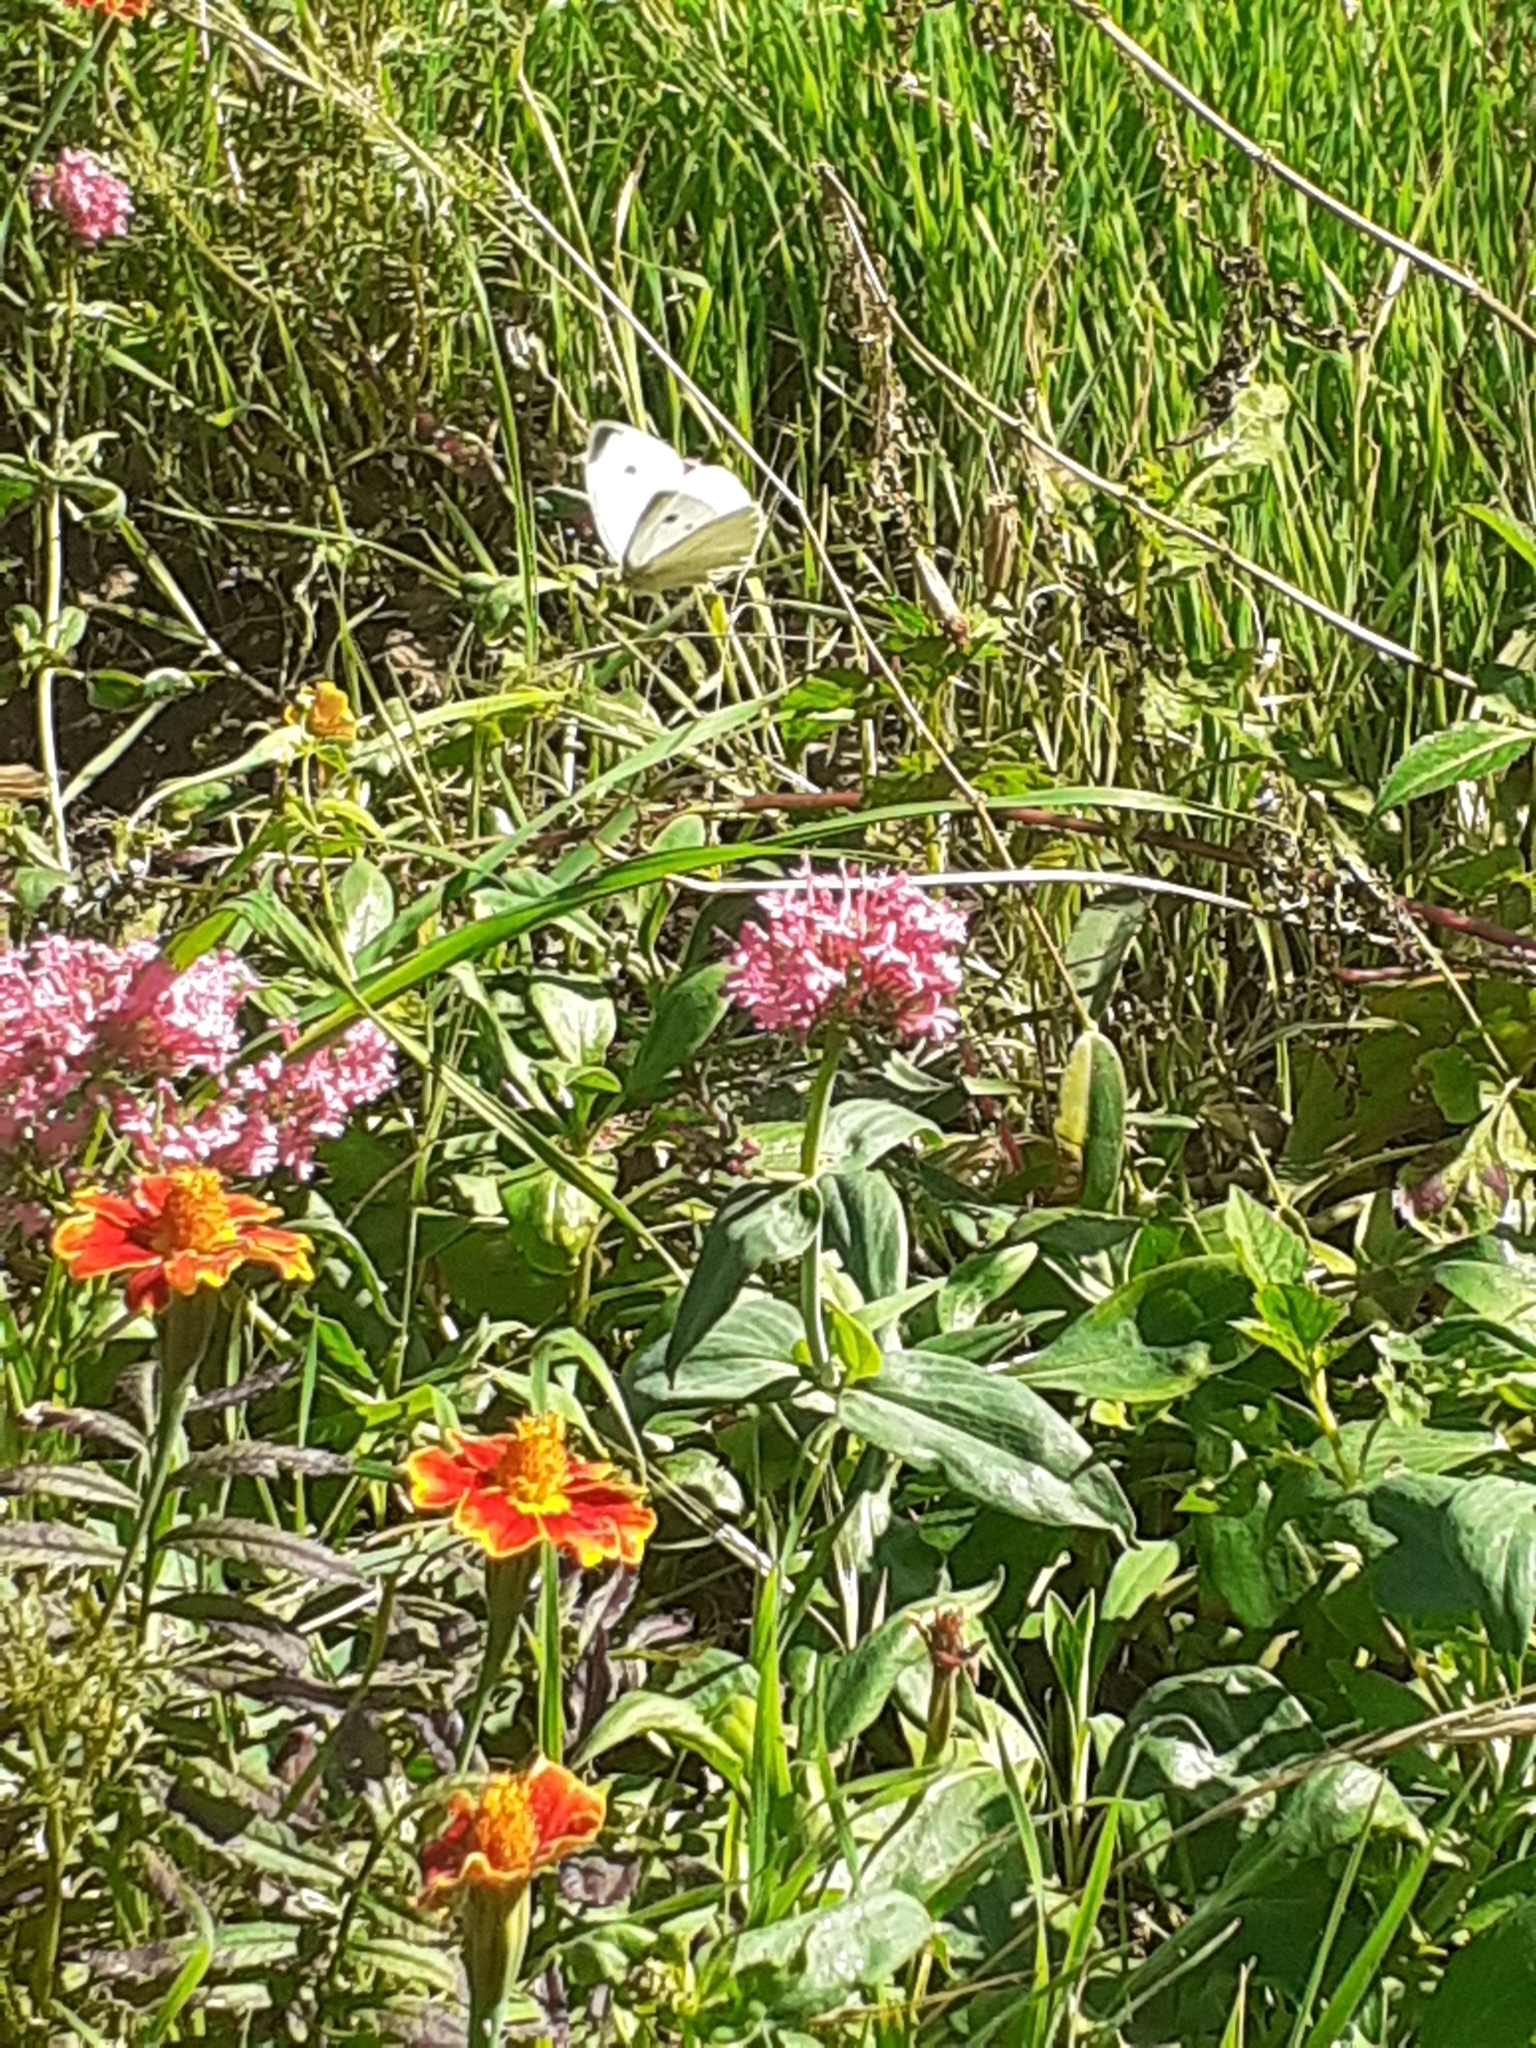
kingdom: Animalia
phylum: Arthropoda
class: Insecta
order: Lepidoptera
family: Pieridae
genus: Pieris
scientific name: Pieris rapae
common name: Small white
